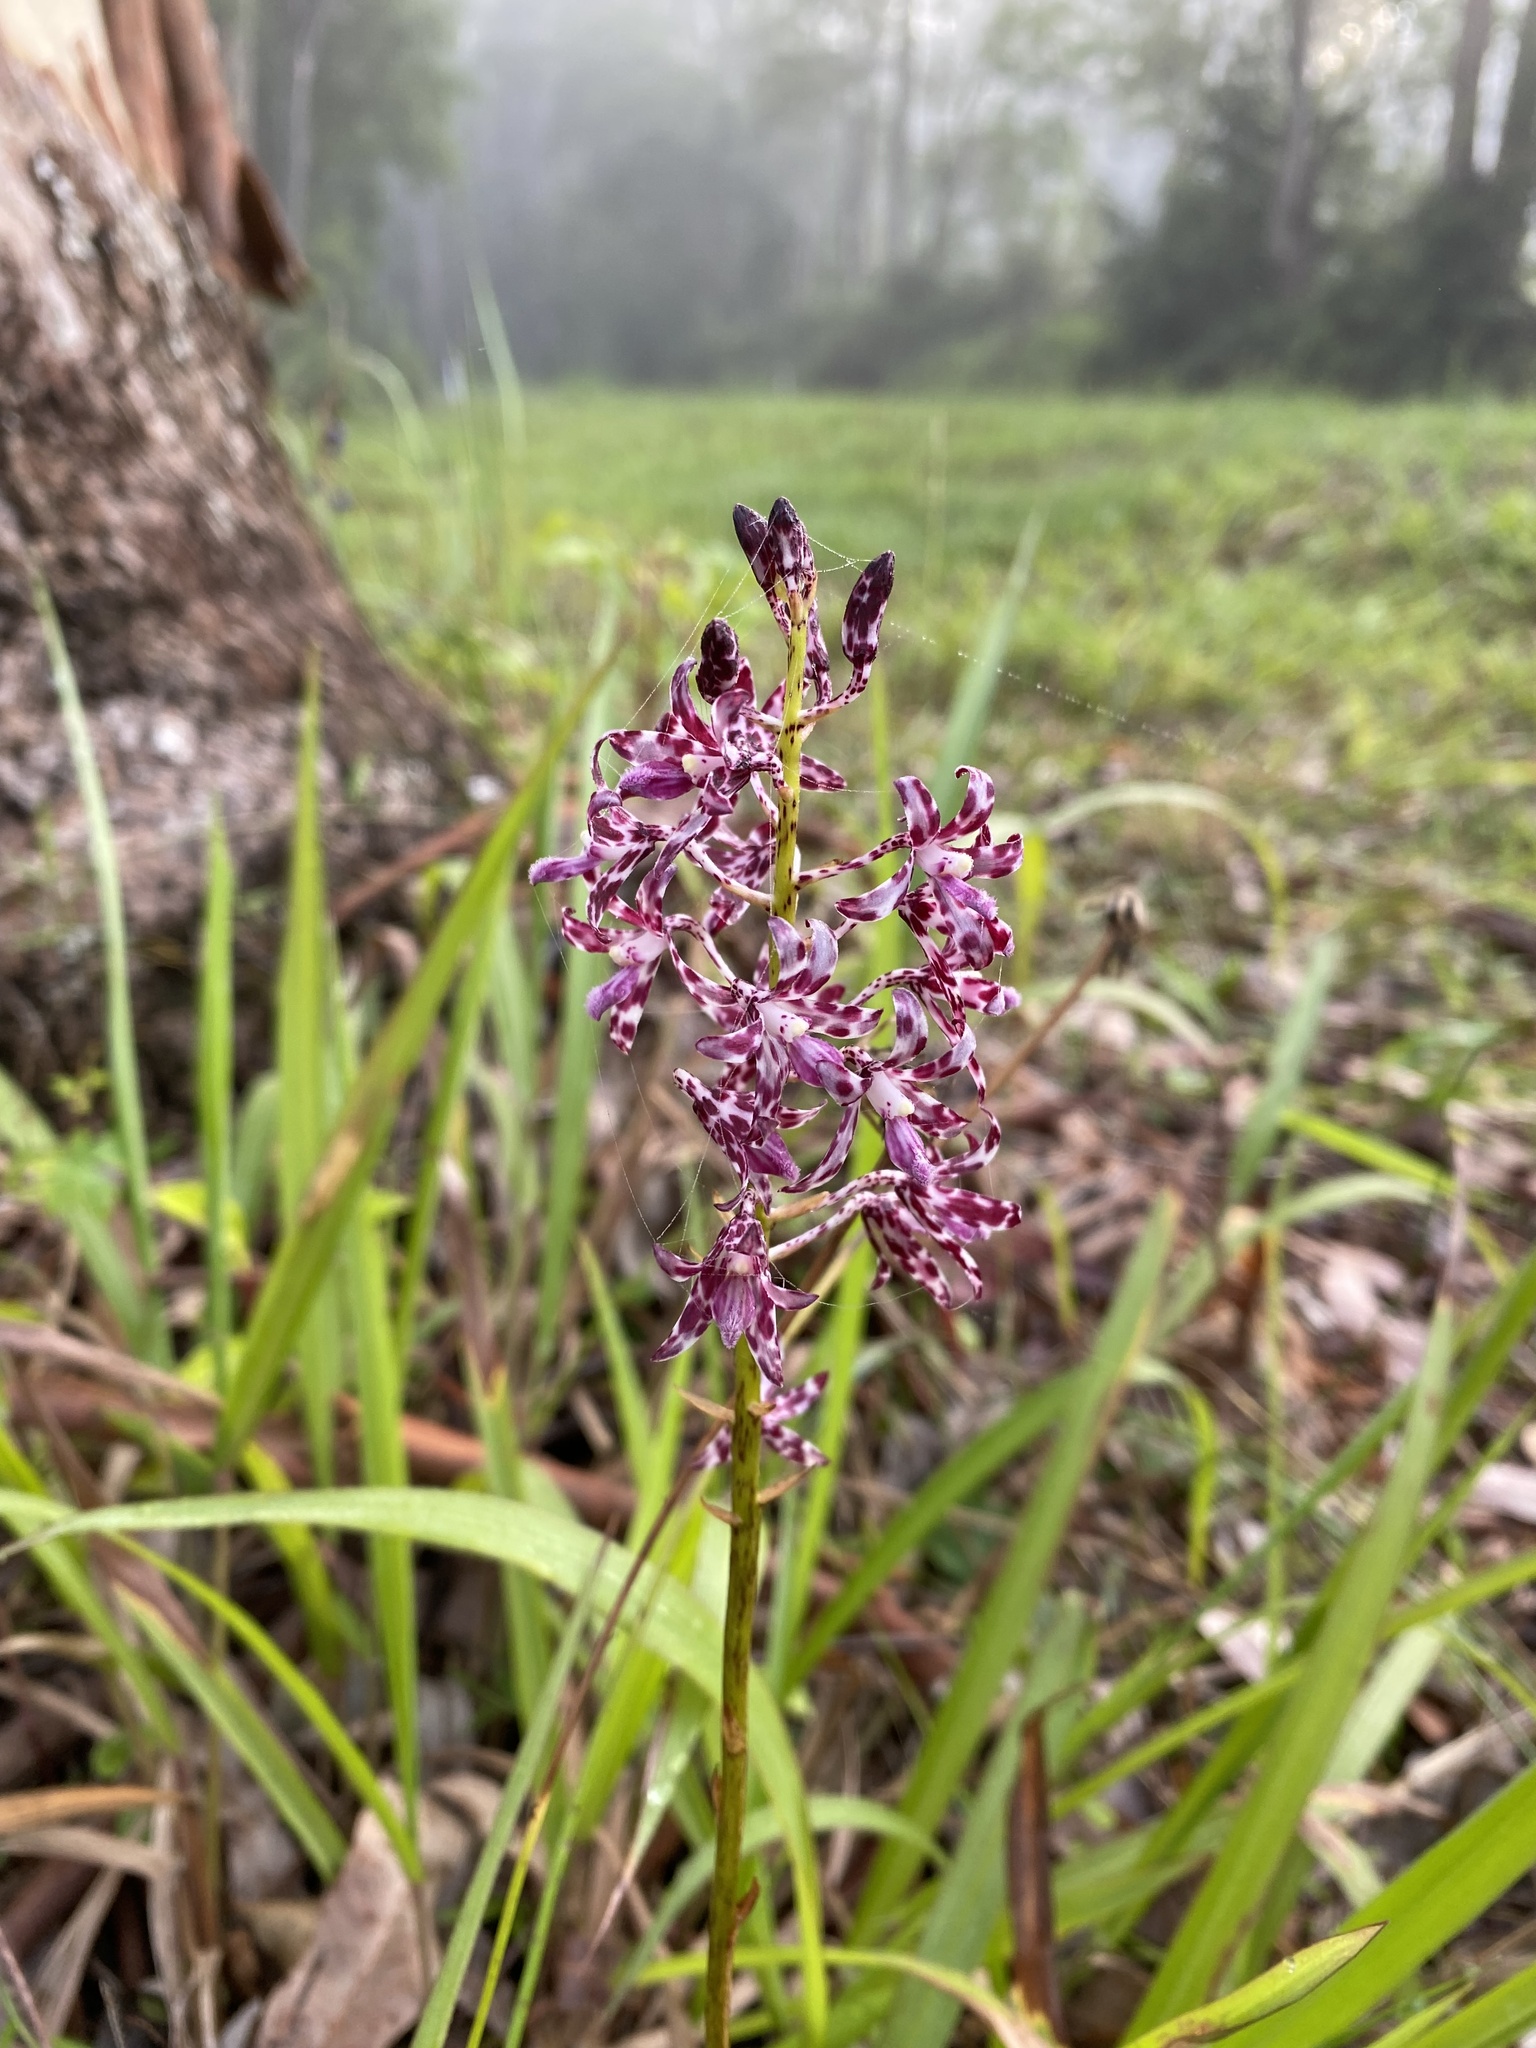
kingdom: Plantae
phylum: Tracheophyta
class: Liliopsida
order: Asparagales
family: Orchidaceae
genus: Dipodium
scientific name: Dipodium variegatum
